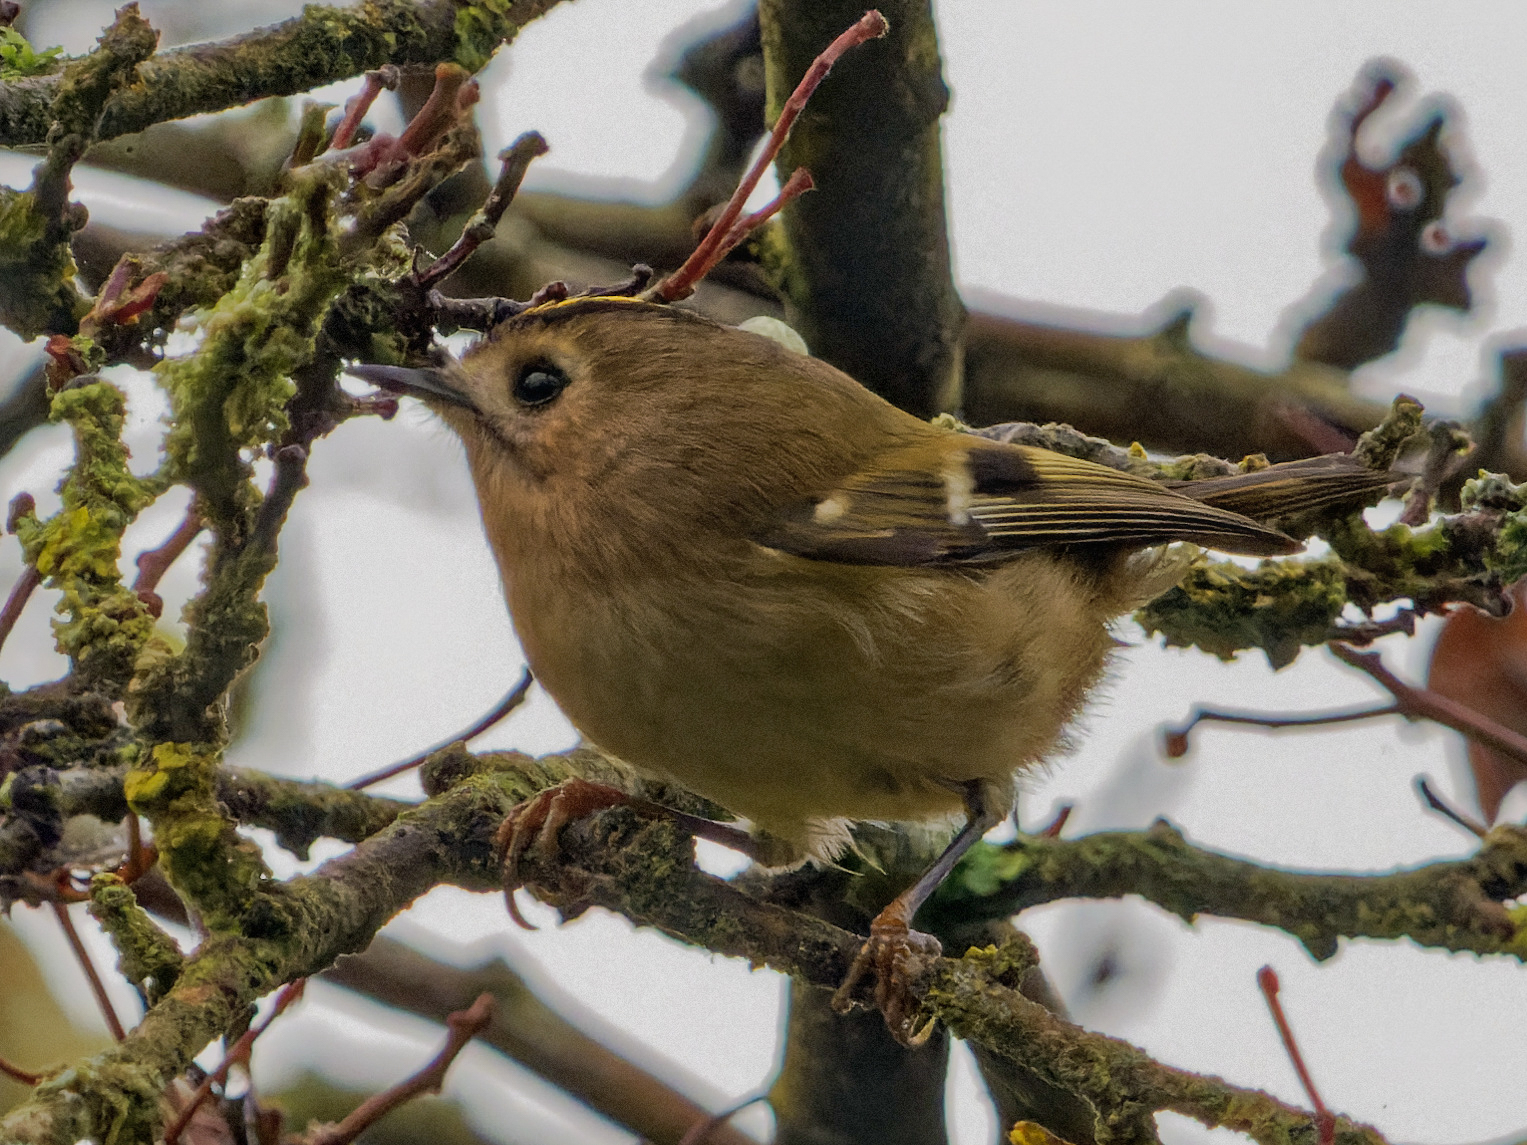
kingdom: Animalia
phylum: Chordata
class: Aves
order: Passeriformes
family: Regulidae
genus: Regulus
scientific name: Regulus regulus
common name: Goldcrest
